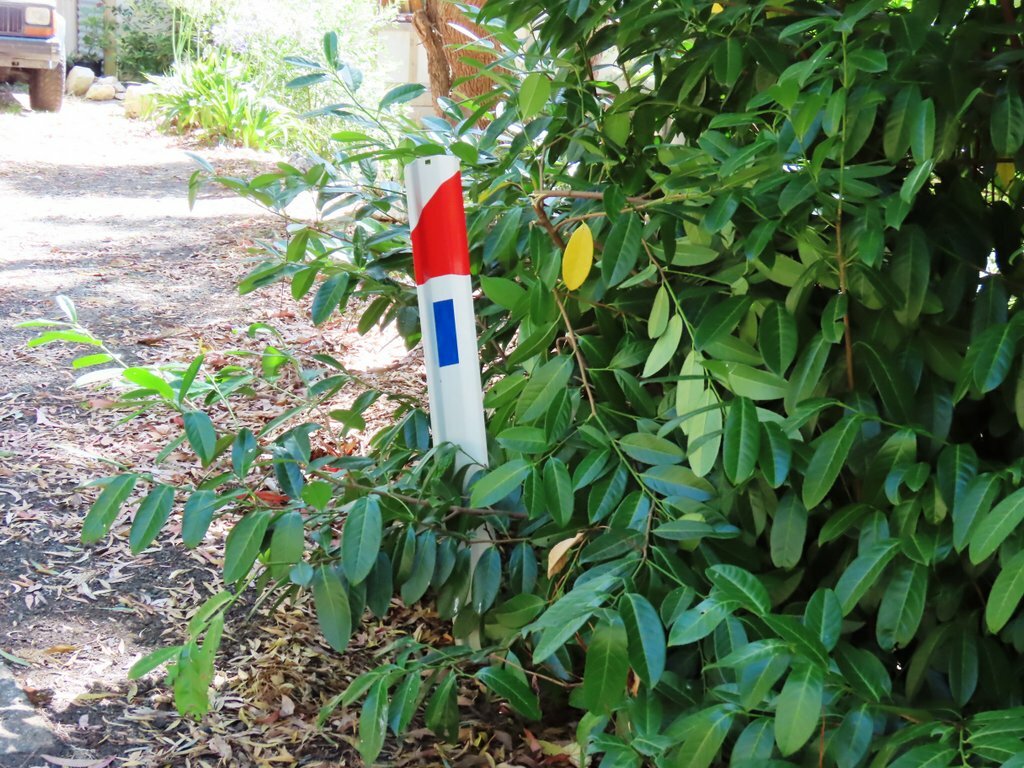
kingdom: Plantae
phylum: Tracheophyta
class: Magnoliopsida
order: Rosales
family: Rosaceae
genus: Prunus
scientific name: Prunus laurocerasus
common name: Cherry laurel
